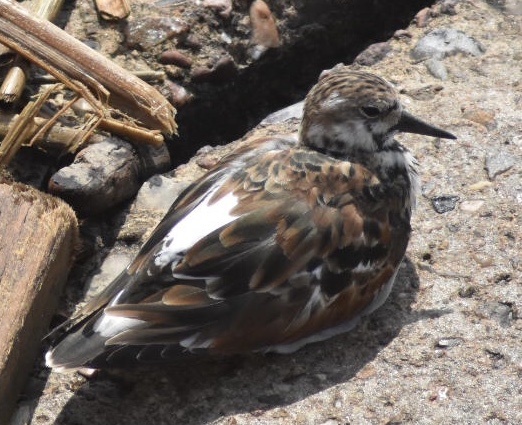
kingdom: Animalia
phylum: Chordata
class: Aves
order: Charadriiformes
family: Scolopacidae
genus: Arenaria
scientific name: Arenaria interpres
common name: Ruddy turnstone
